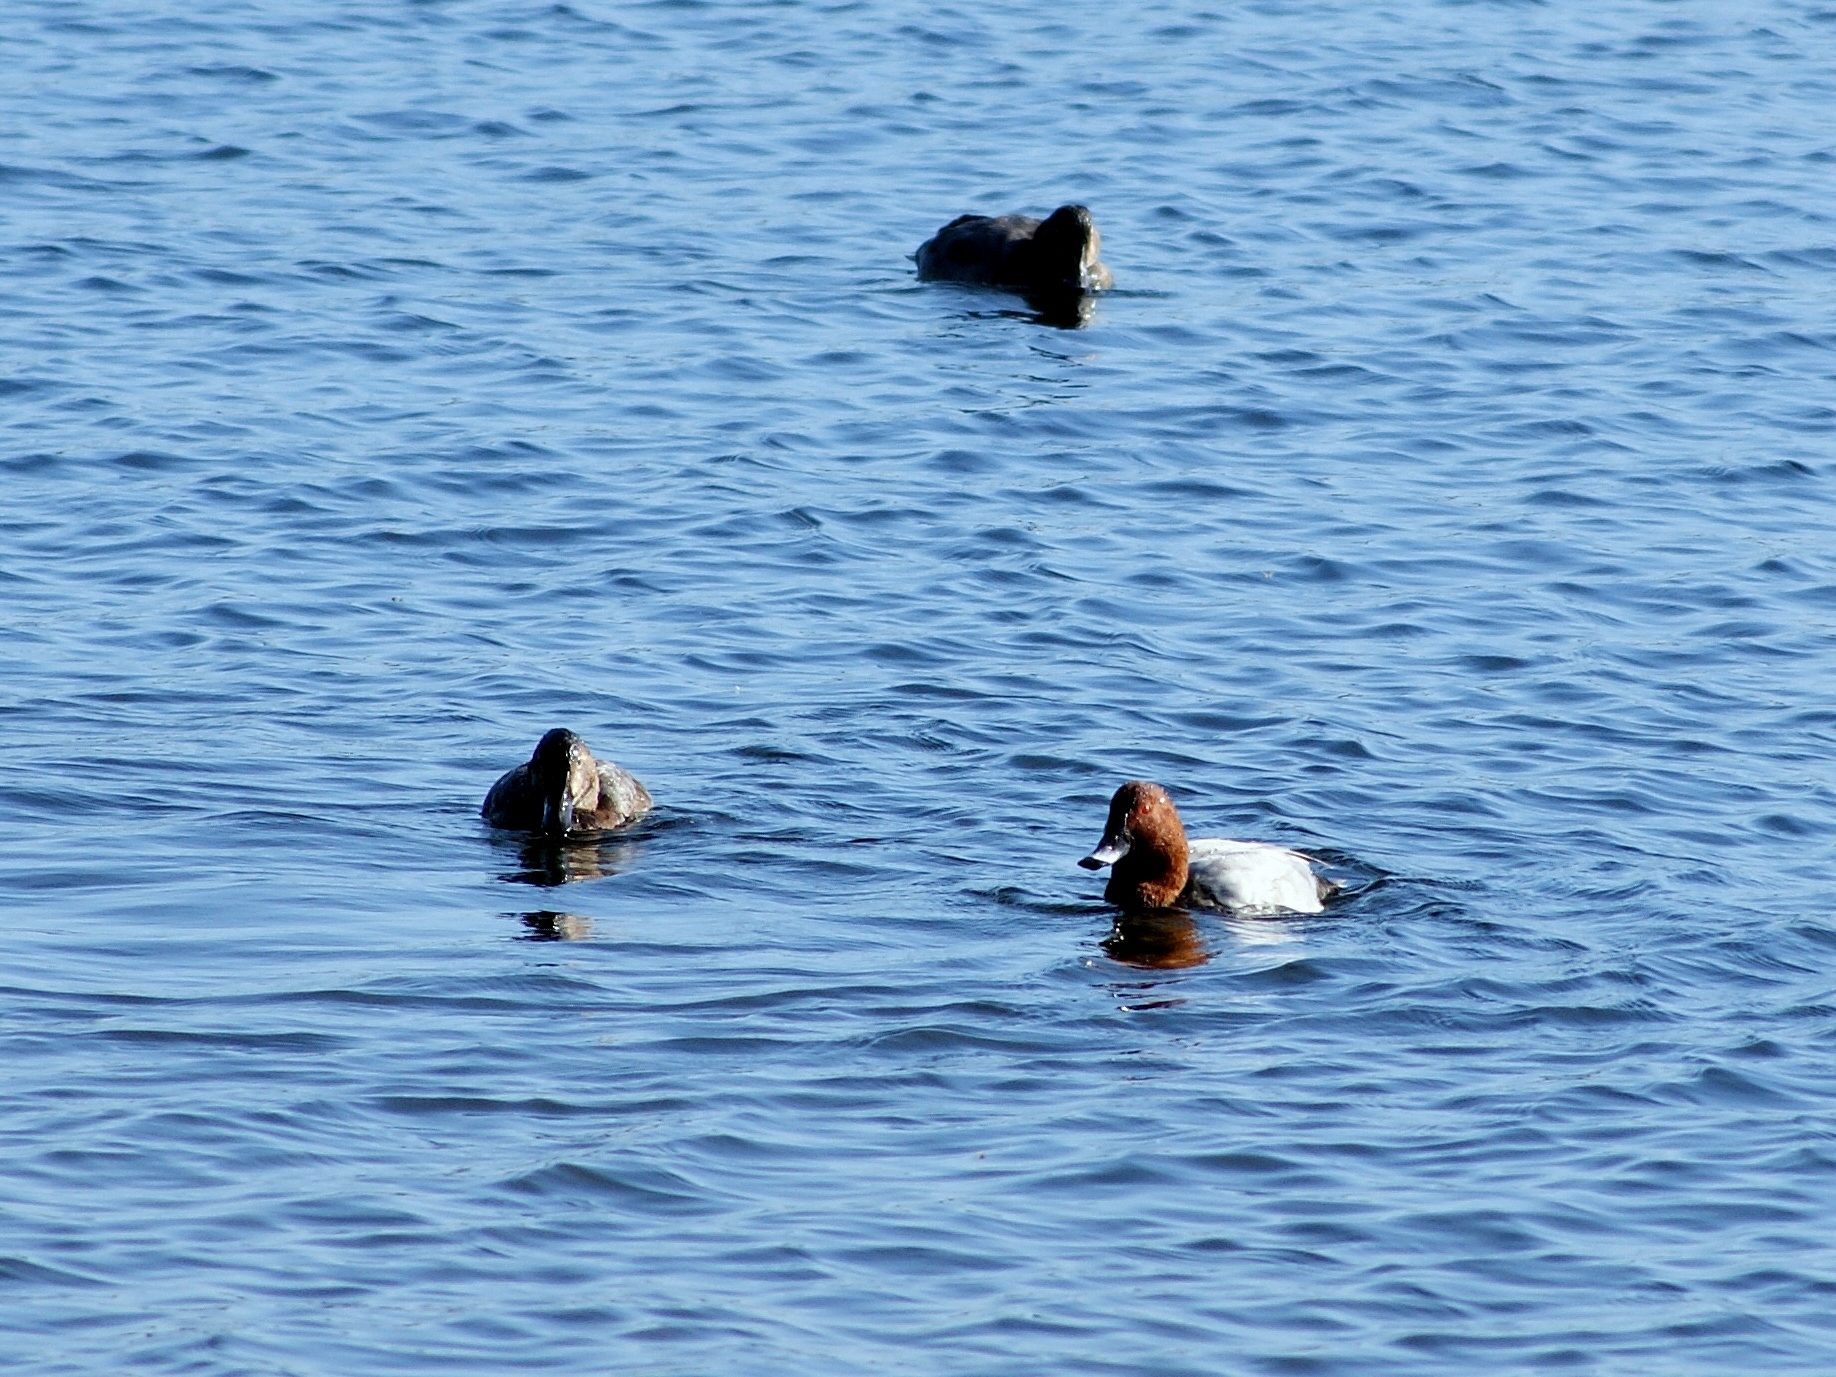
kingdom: Animalia
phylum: Chordata
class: Aves
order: Anseriformes
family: Anatidae
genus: Aythya
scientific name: Aythya ferina
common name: Common pochard
